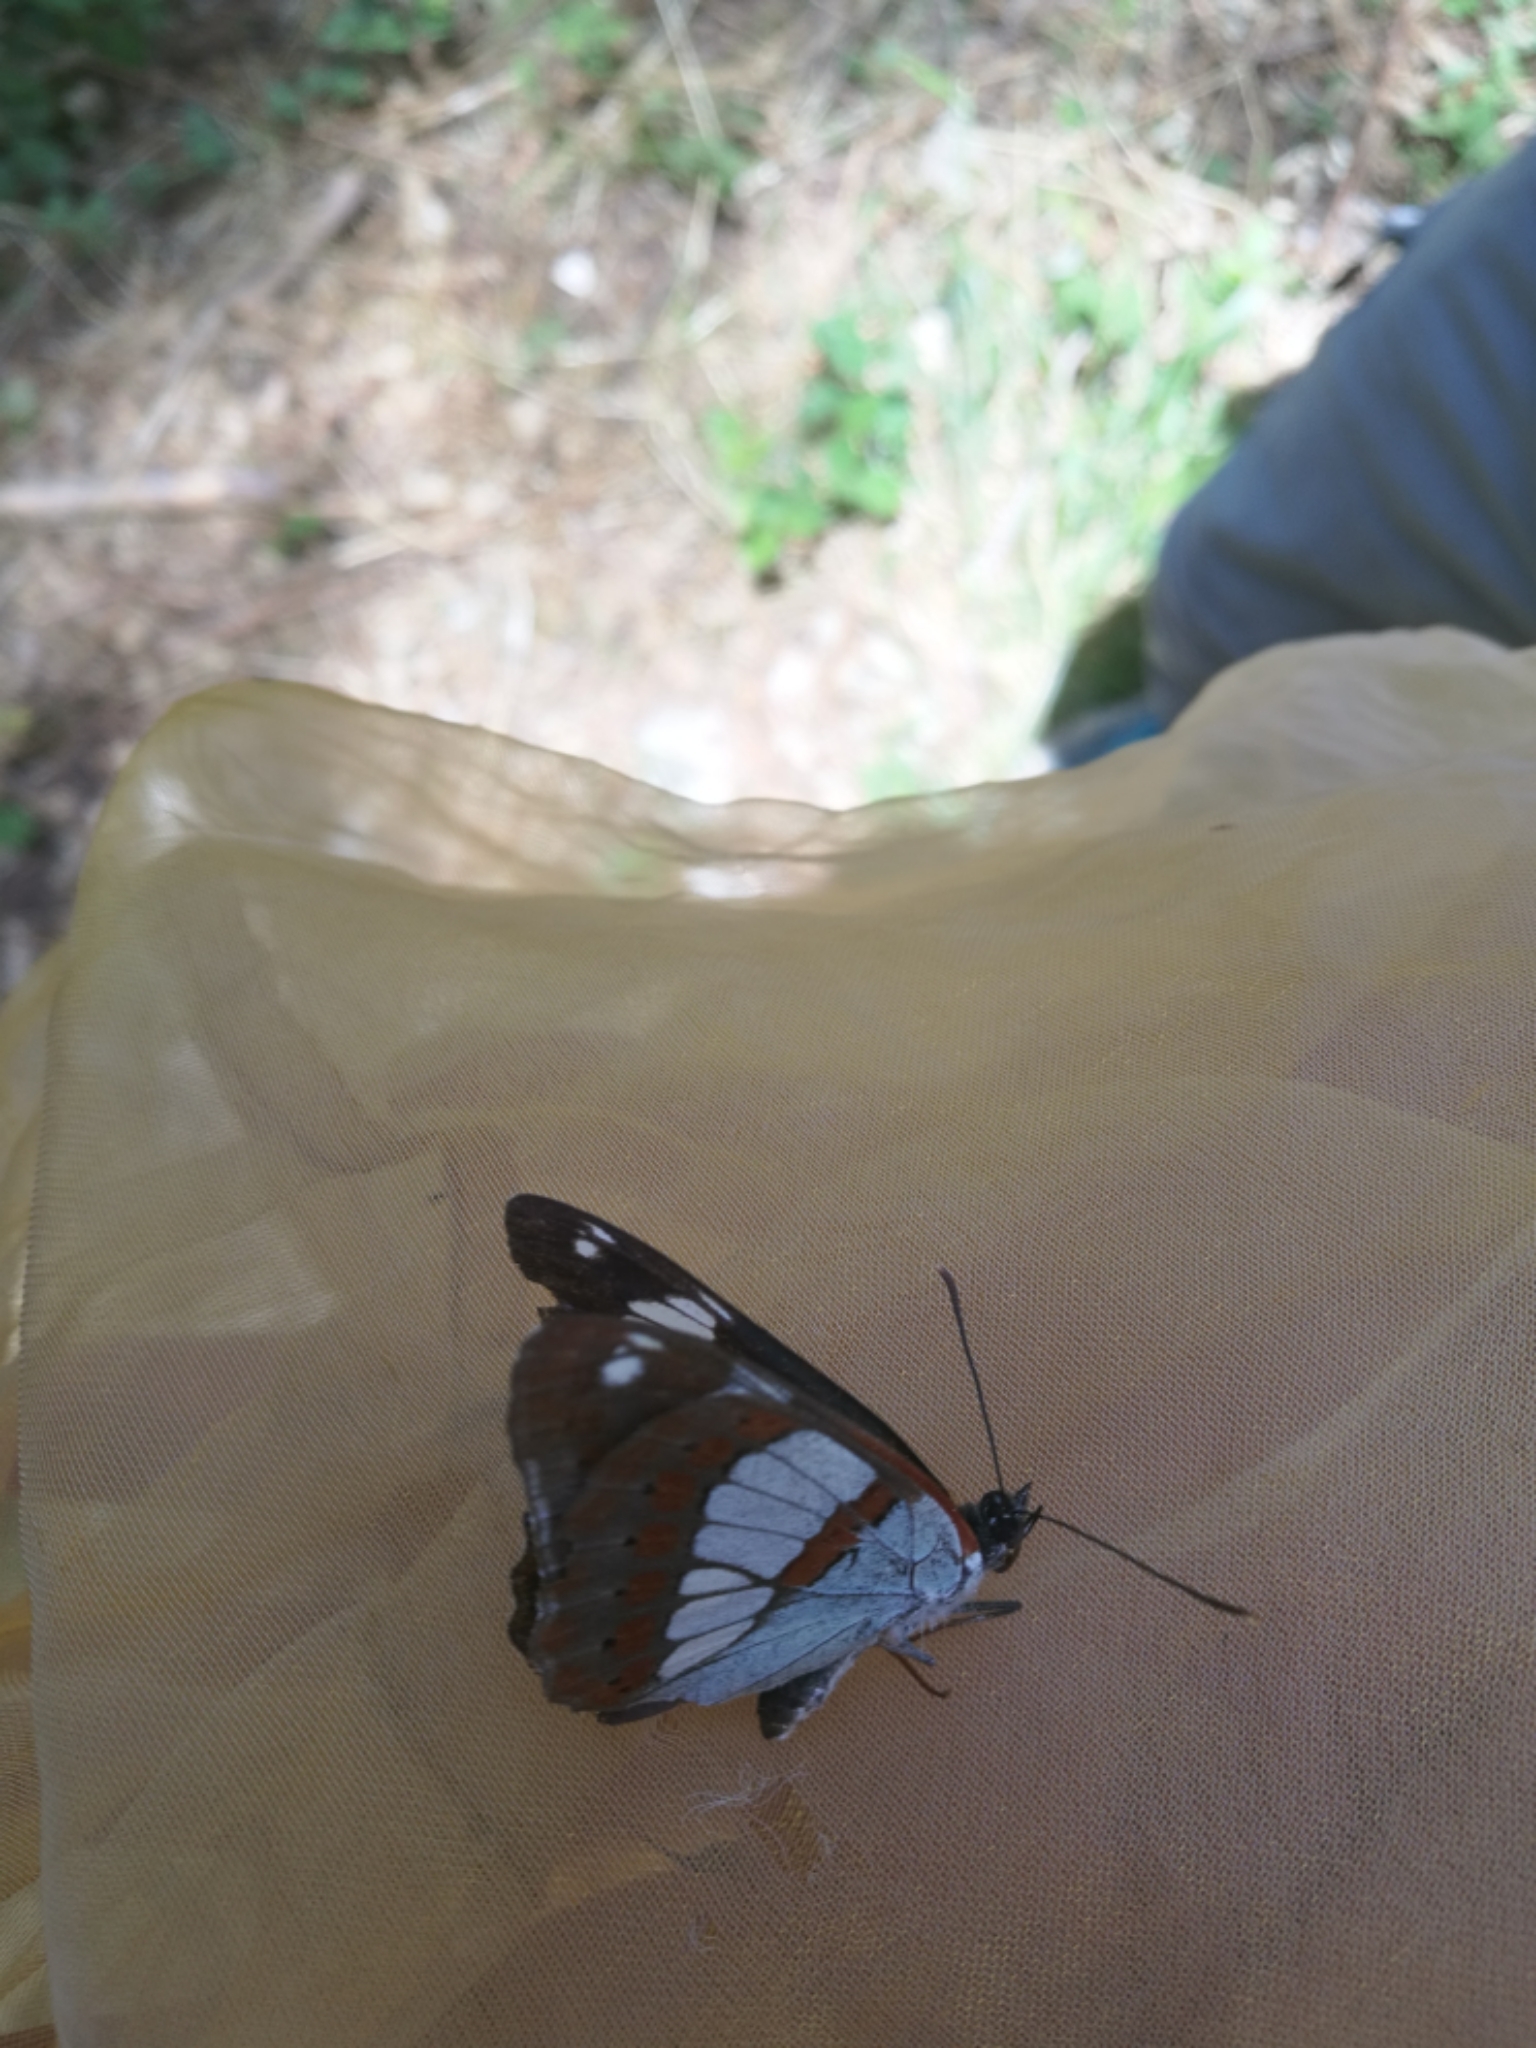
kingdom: Animalia
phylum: Arthropoda
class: Insecta
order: Lepidoptera
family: Nymphalidae
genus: Limenitis
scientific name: Limenitis reducta
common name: Southern white admiral
